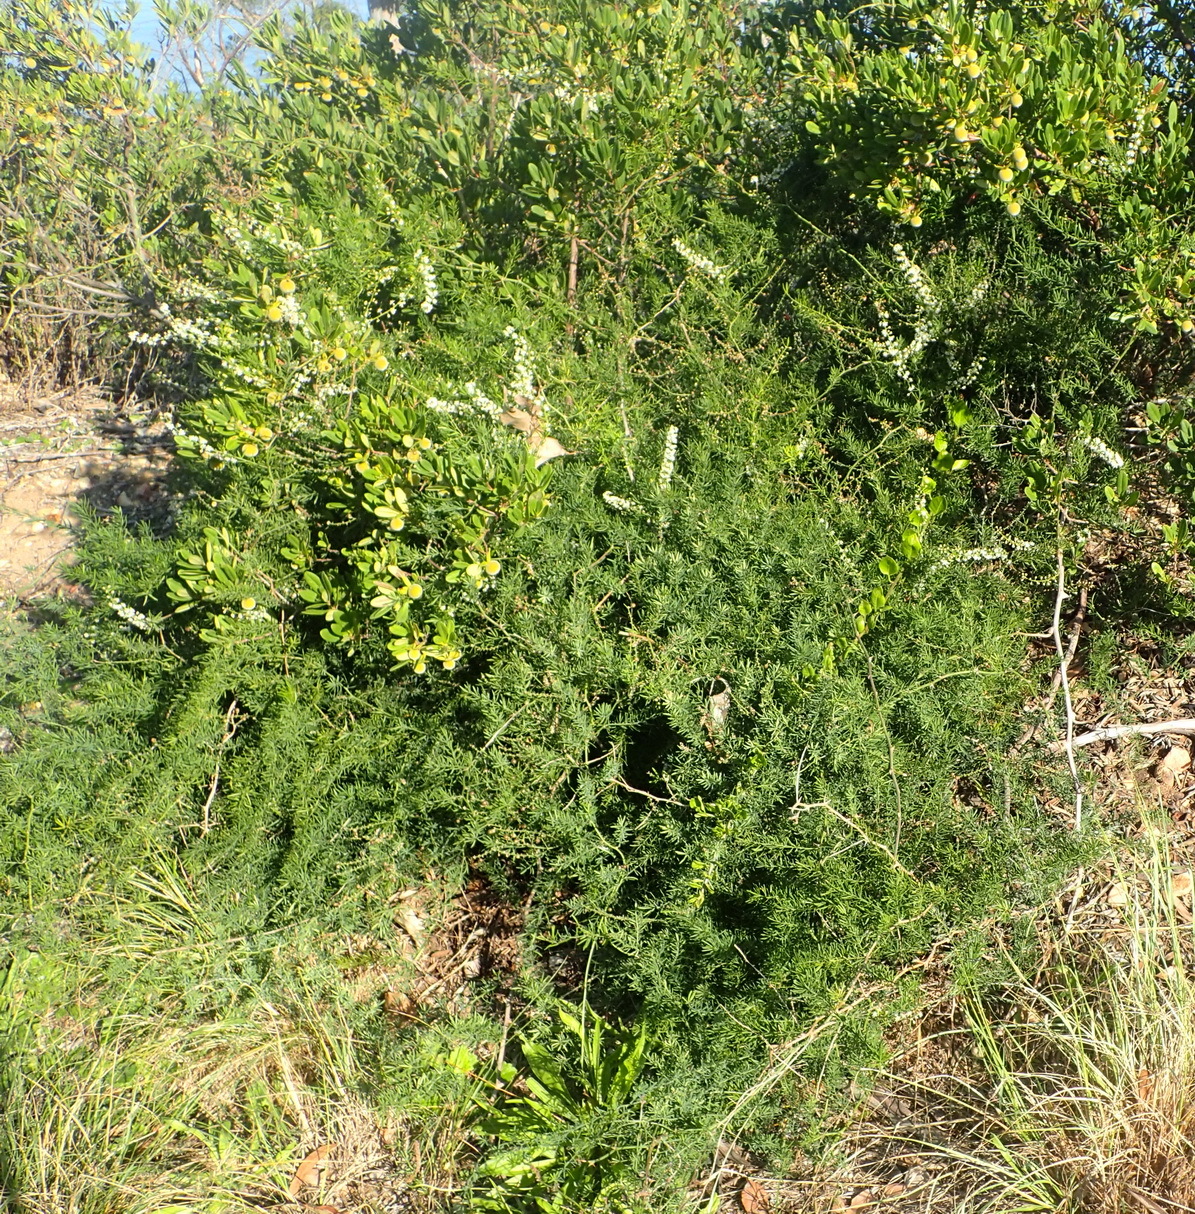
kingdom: Plantae
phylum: Tracheophyta
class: Liliopsida
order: Asparagales
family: Asparagaceae
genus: Asparagus
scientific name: Asparagus aethiopicus
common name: Sprenger's asparagus fern
